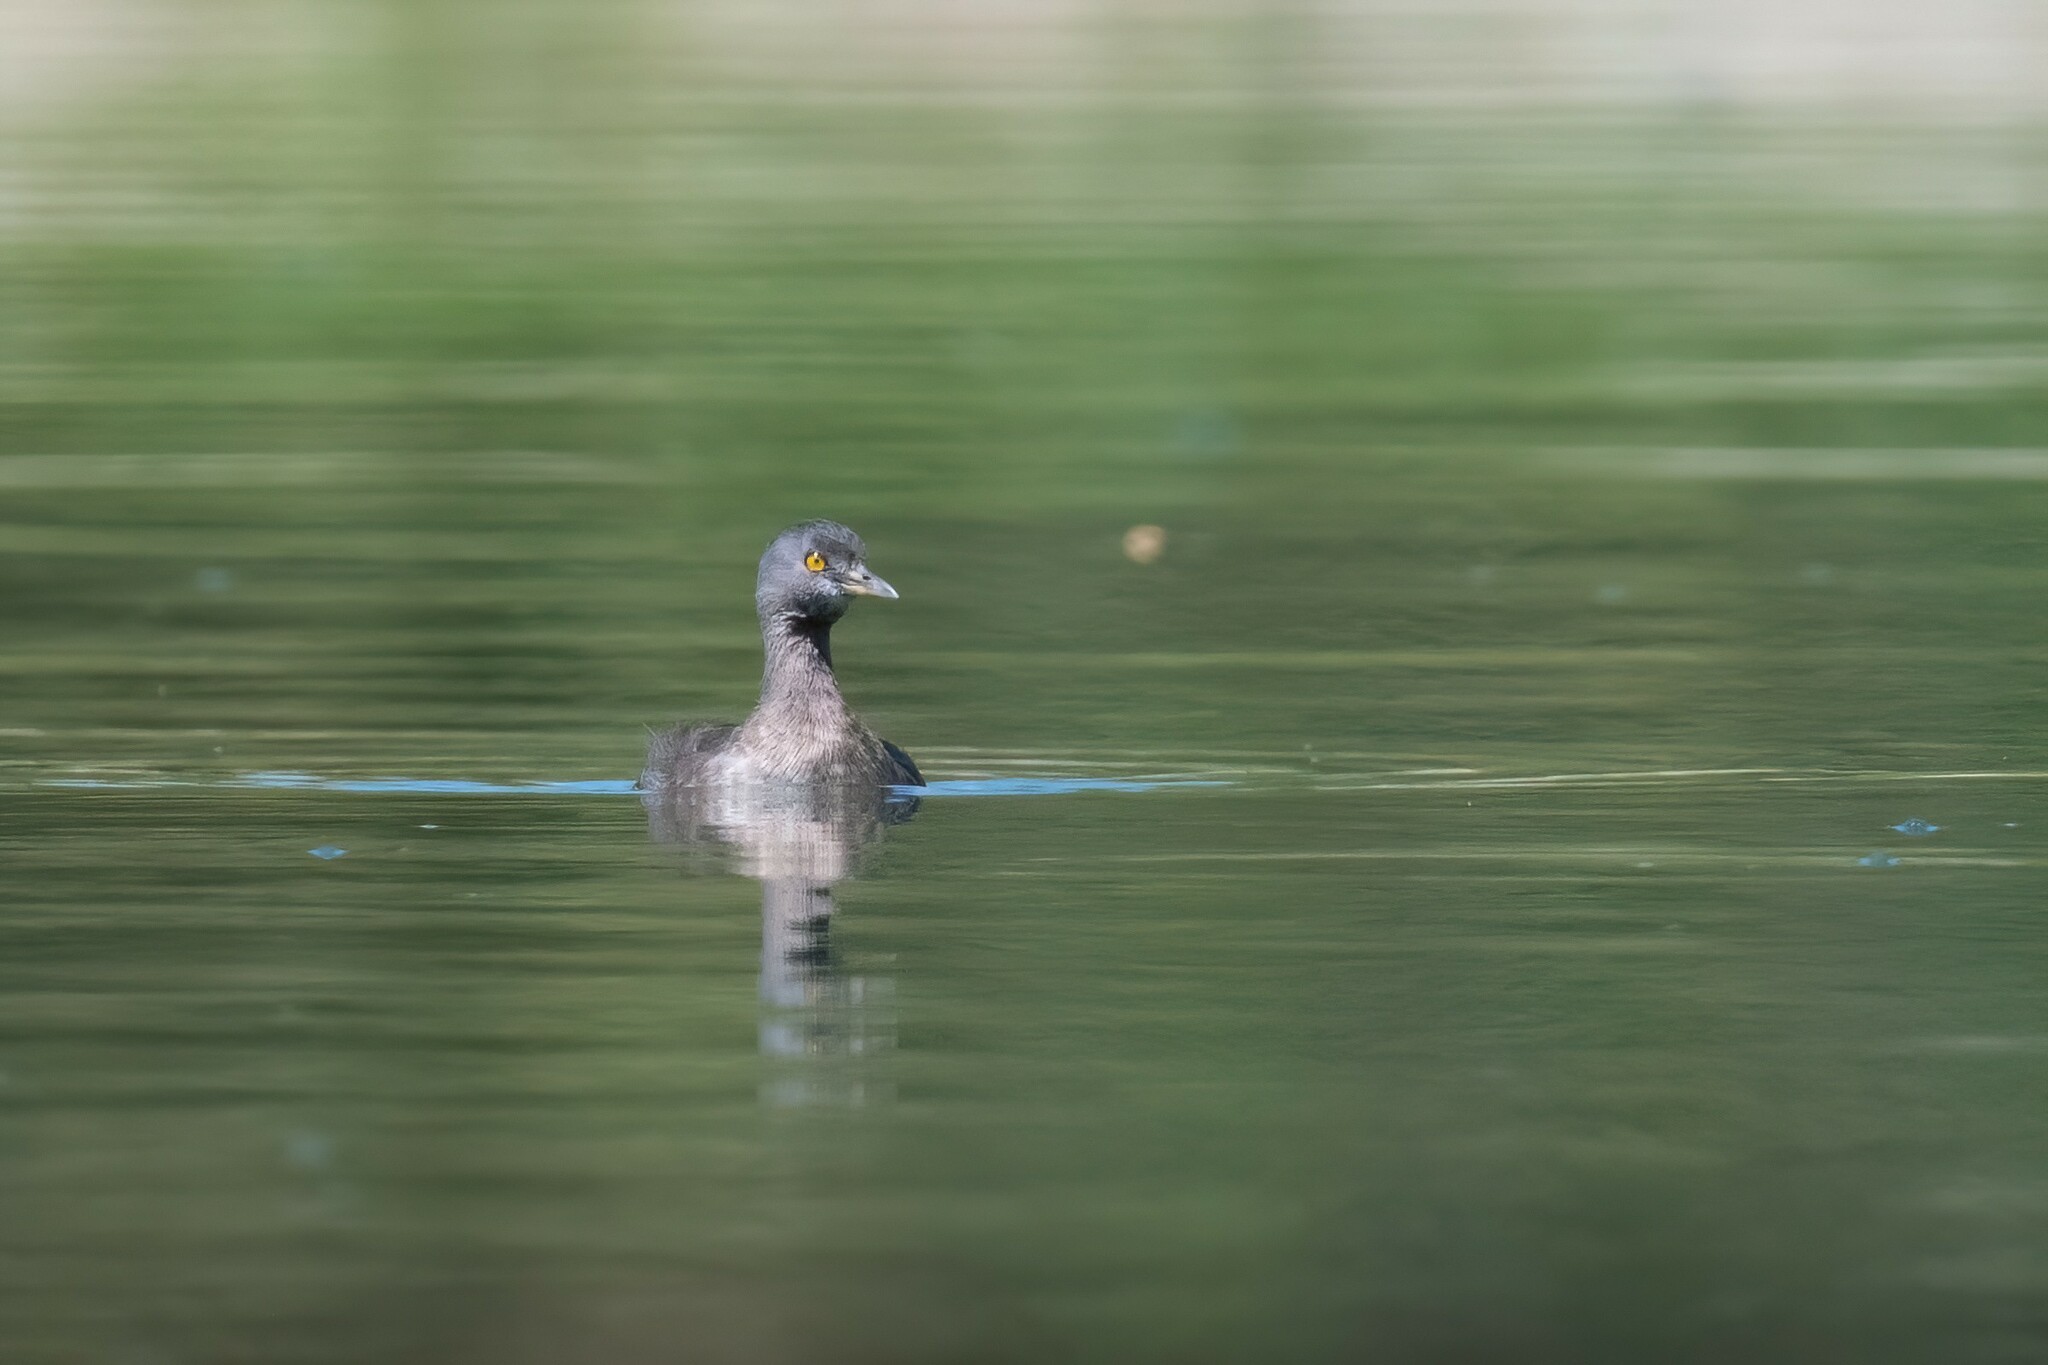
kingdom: Animalia
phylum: Chordata
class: Aves
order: Podicipediformes
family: Podicipedidae
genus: Tachybaptus
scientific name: Tachybaptus dominicus
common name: Least grebe
